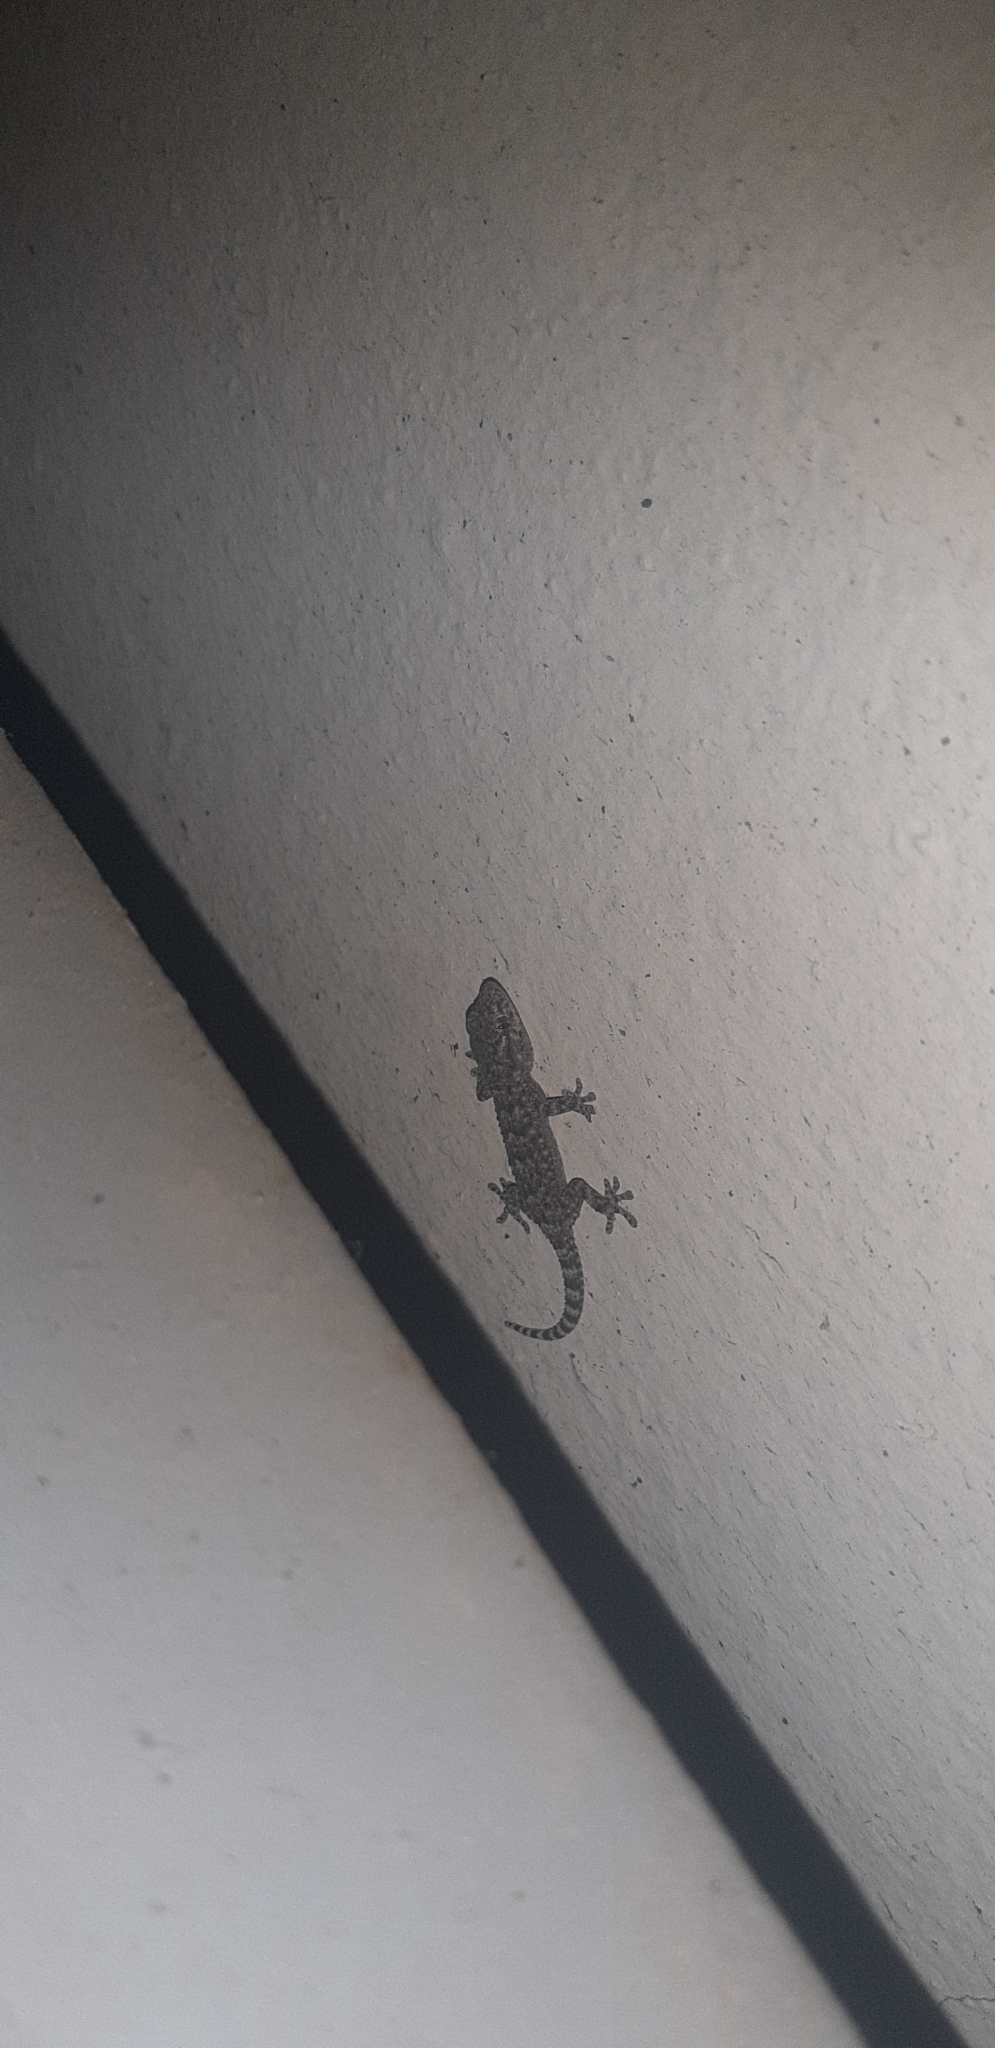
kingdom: Animalia
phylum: Chordata
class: Squamata
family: Phyllodactylidae
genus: Tarentola
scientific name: Tarentola mauritanica
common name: Moorish gecko
